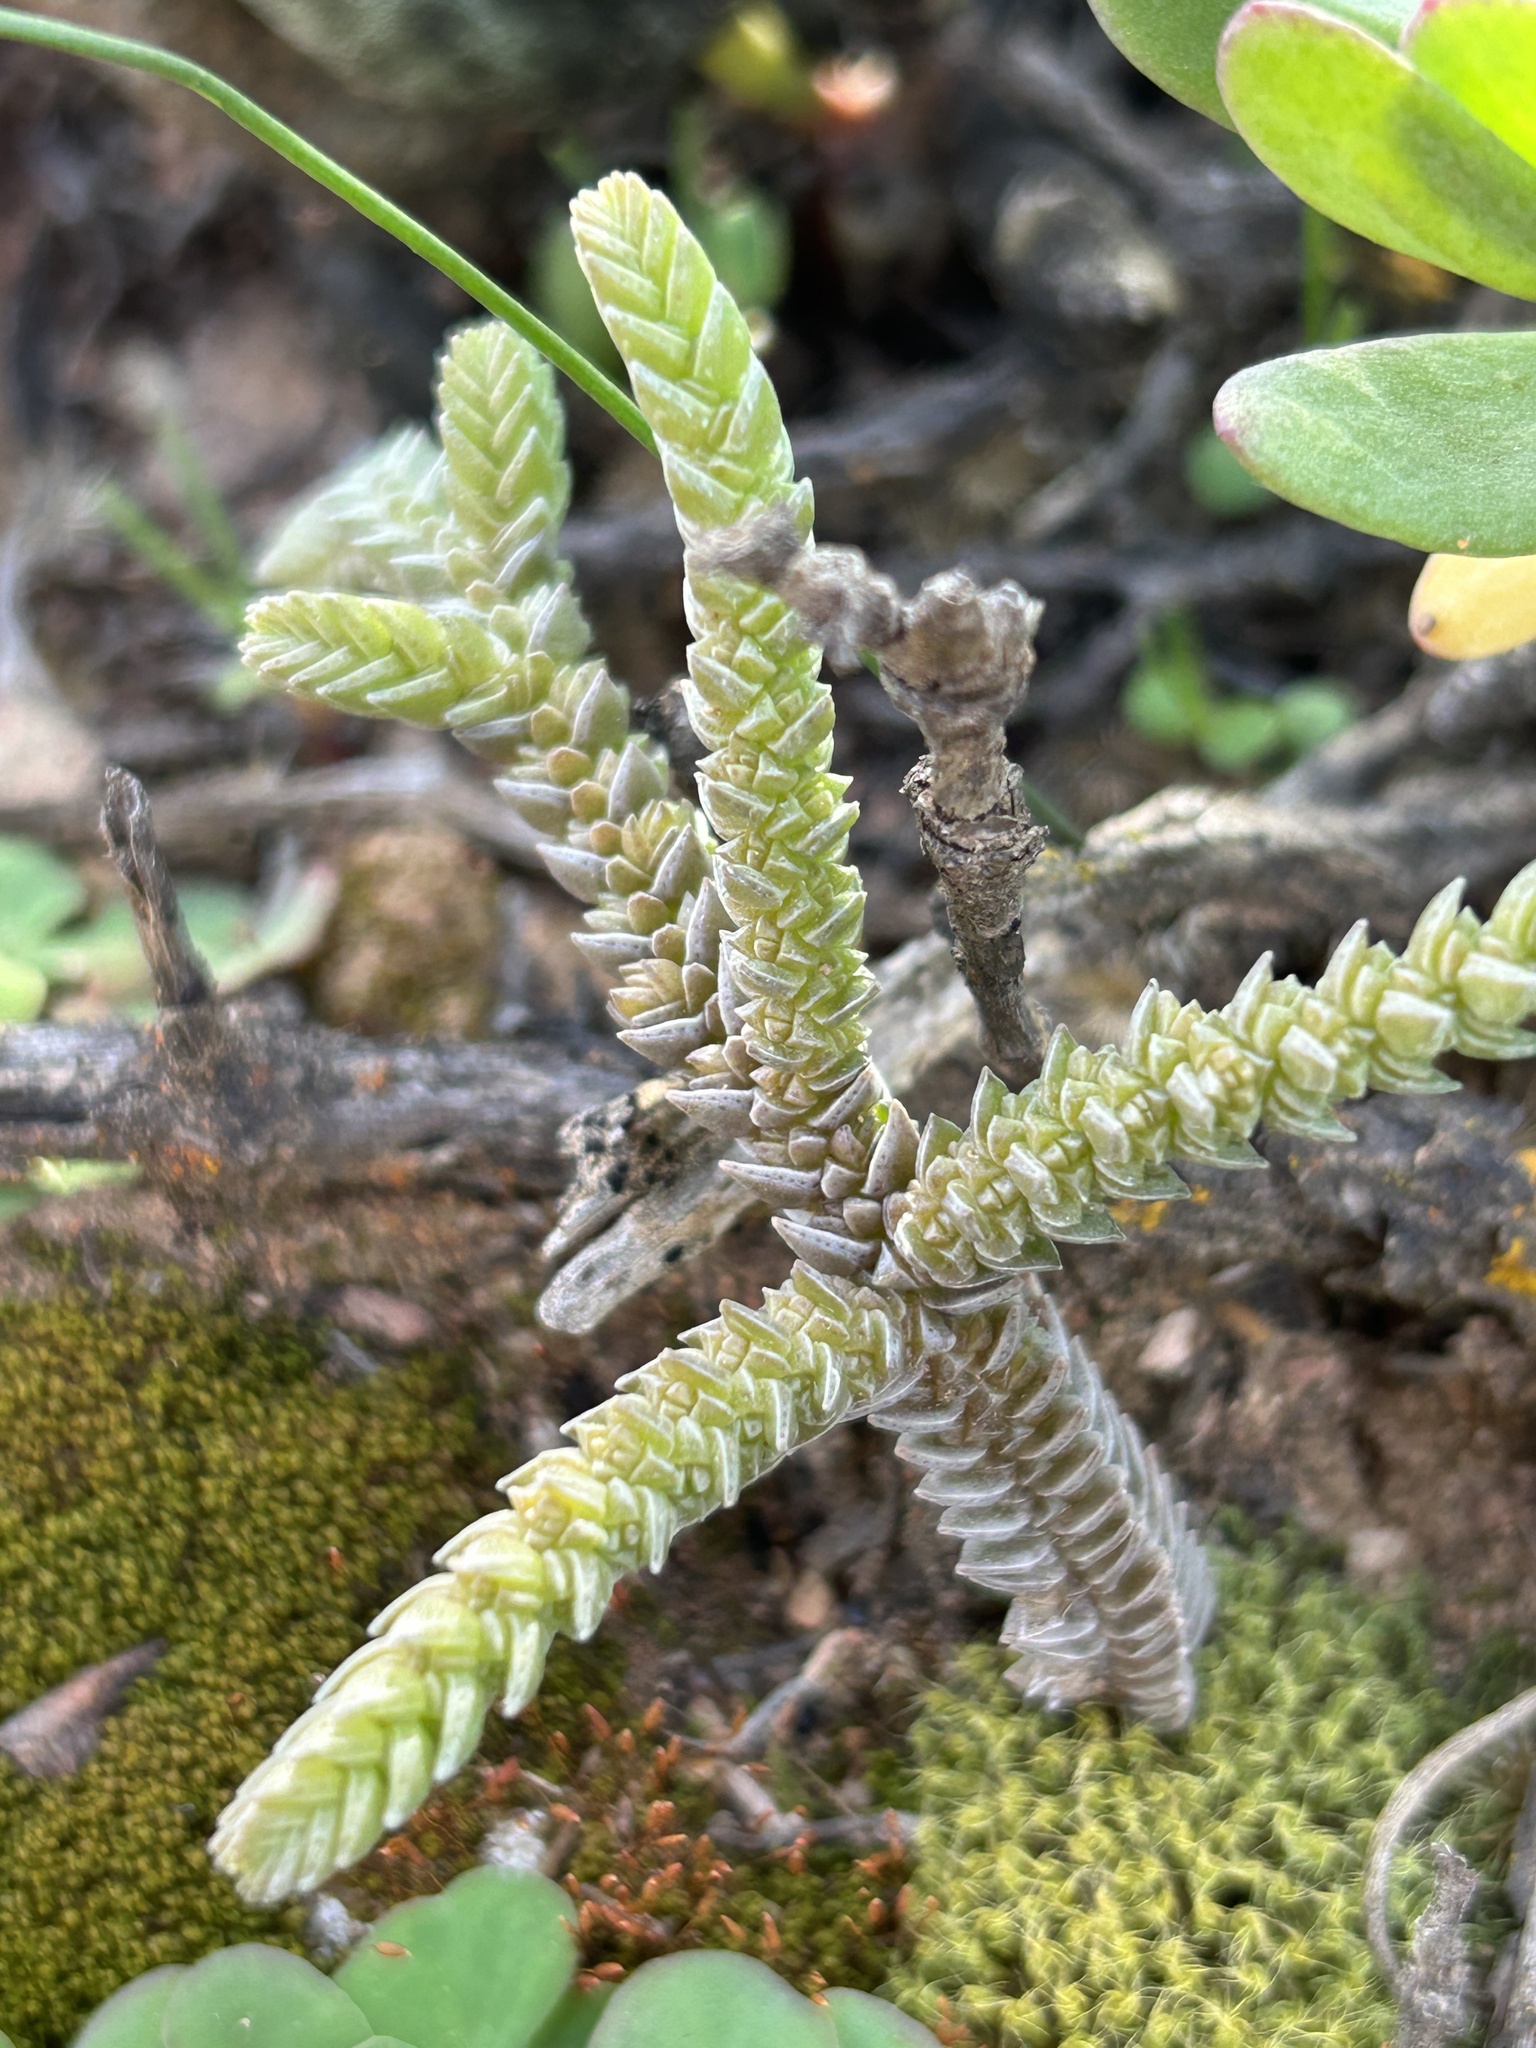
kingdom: Plantae
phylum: Tracheophyta
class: Magnoliopsida
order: Saxifragales
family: Crassulaceae
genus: Crassula
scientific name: Crassula muscosa
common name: Toy-cypress
